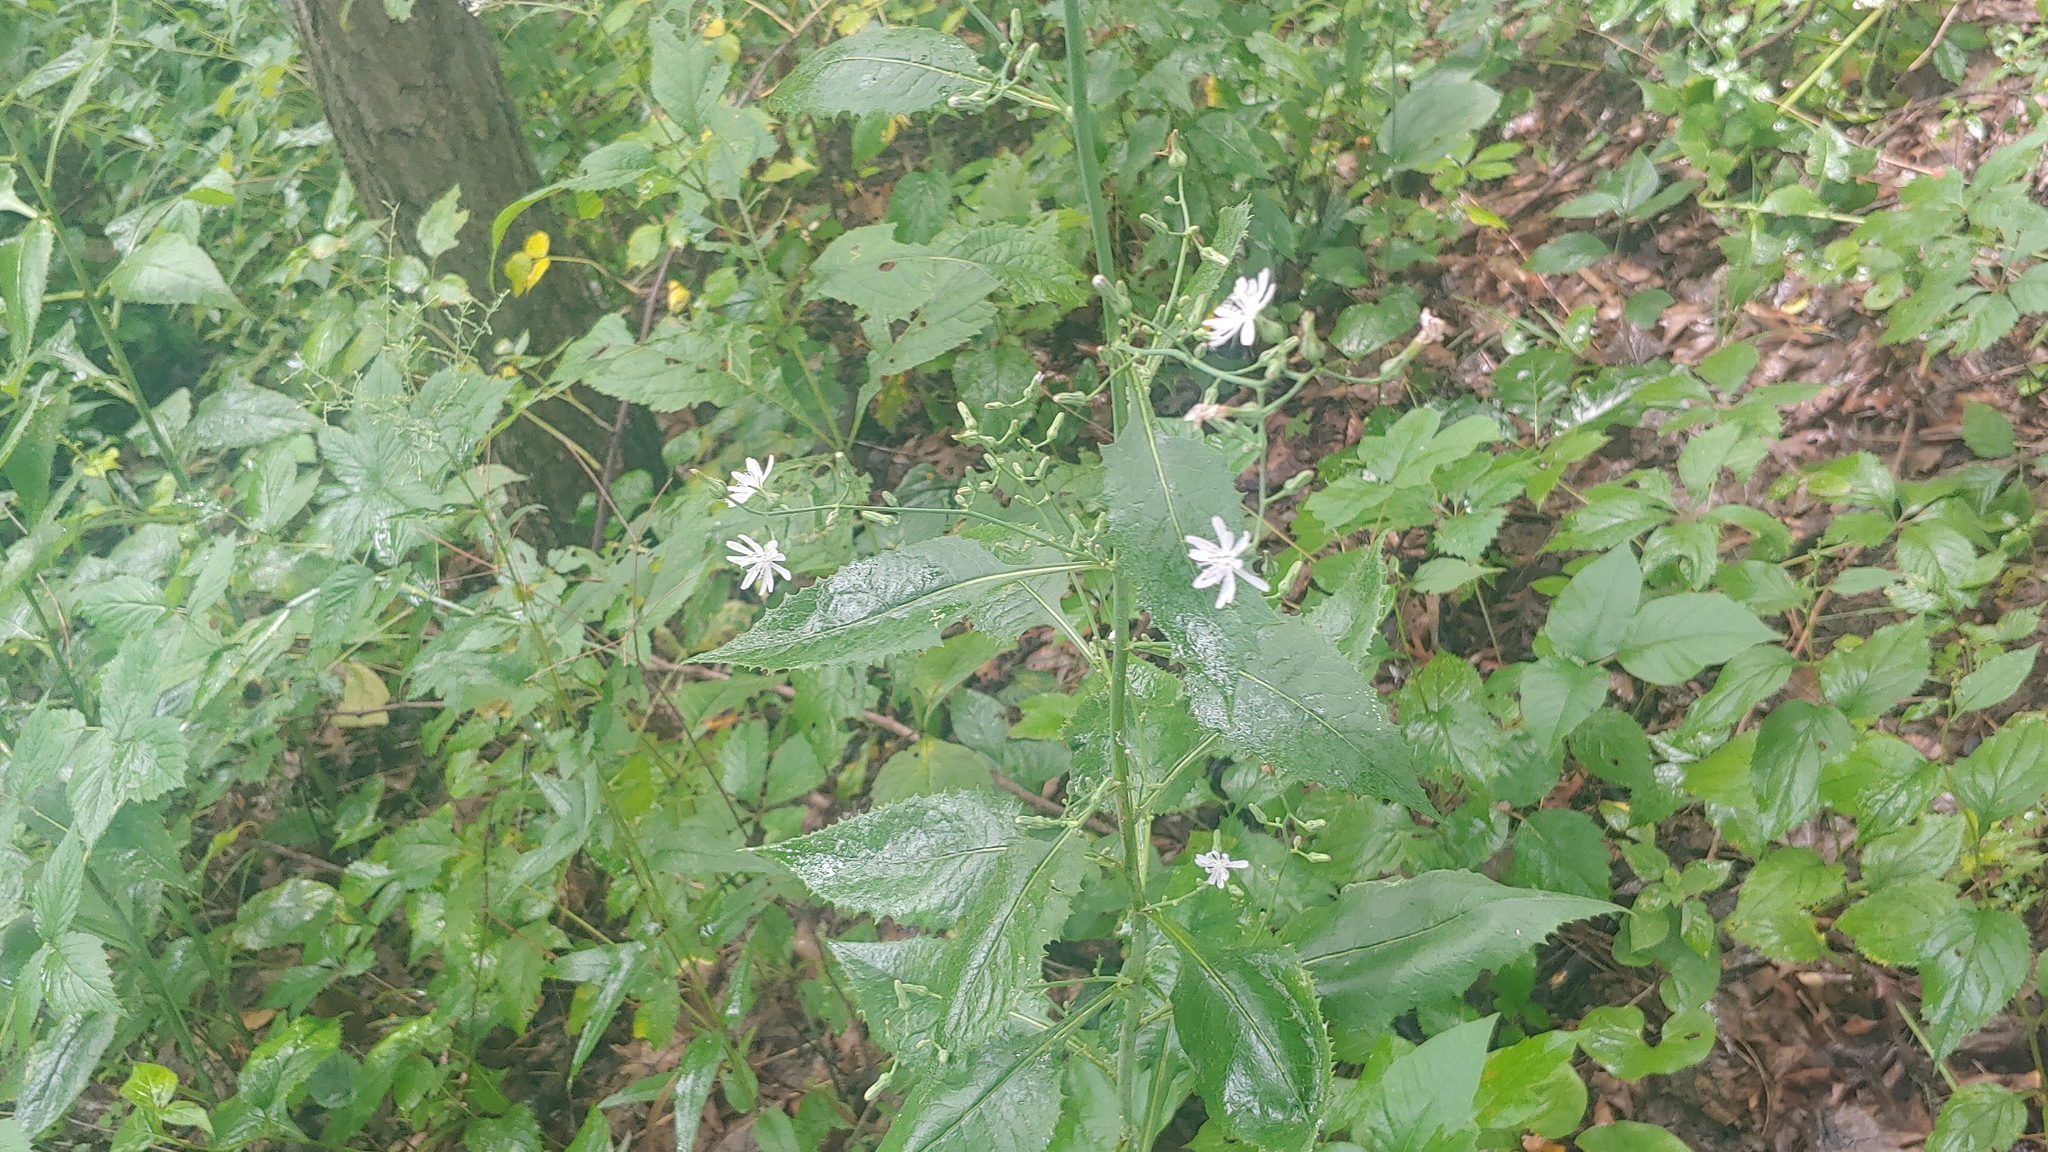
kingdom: Plantae
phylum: Tracheophyta
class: Magnoliopsida
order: Asterales
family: Asteraceae
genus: Lactuca
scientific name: Lactuca floridana
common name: Woodland lettuce
